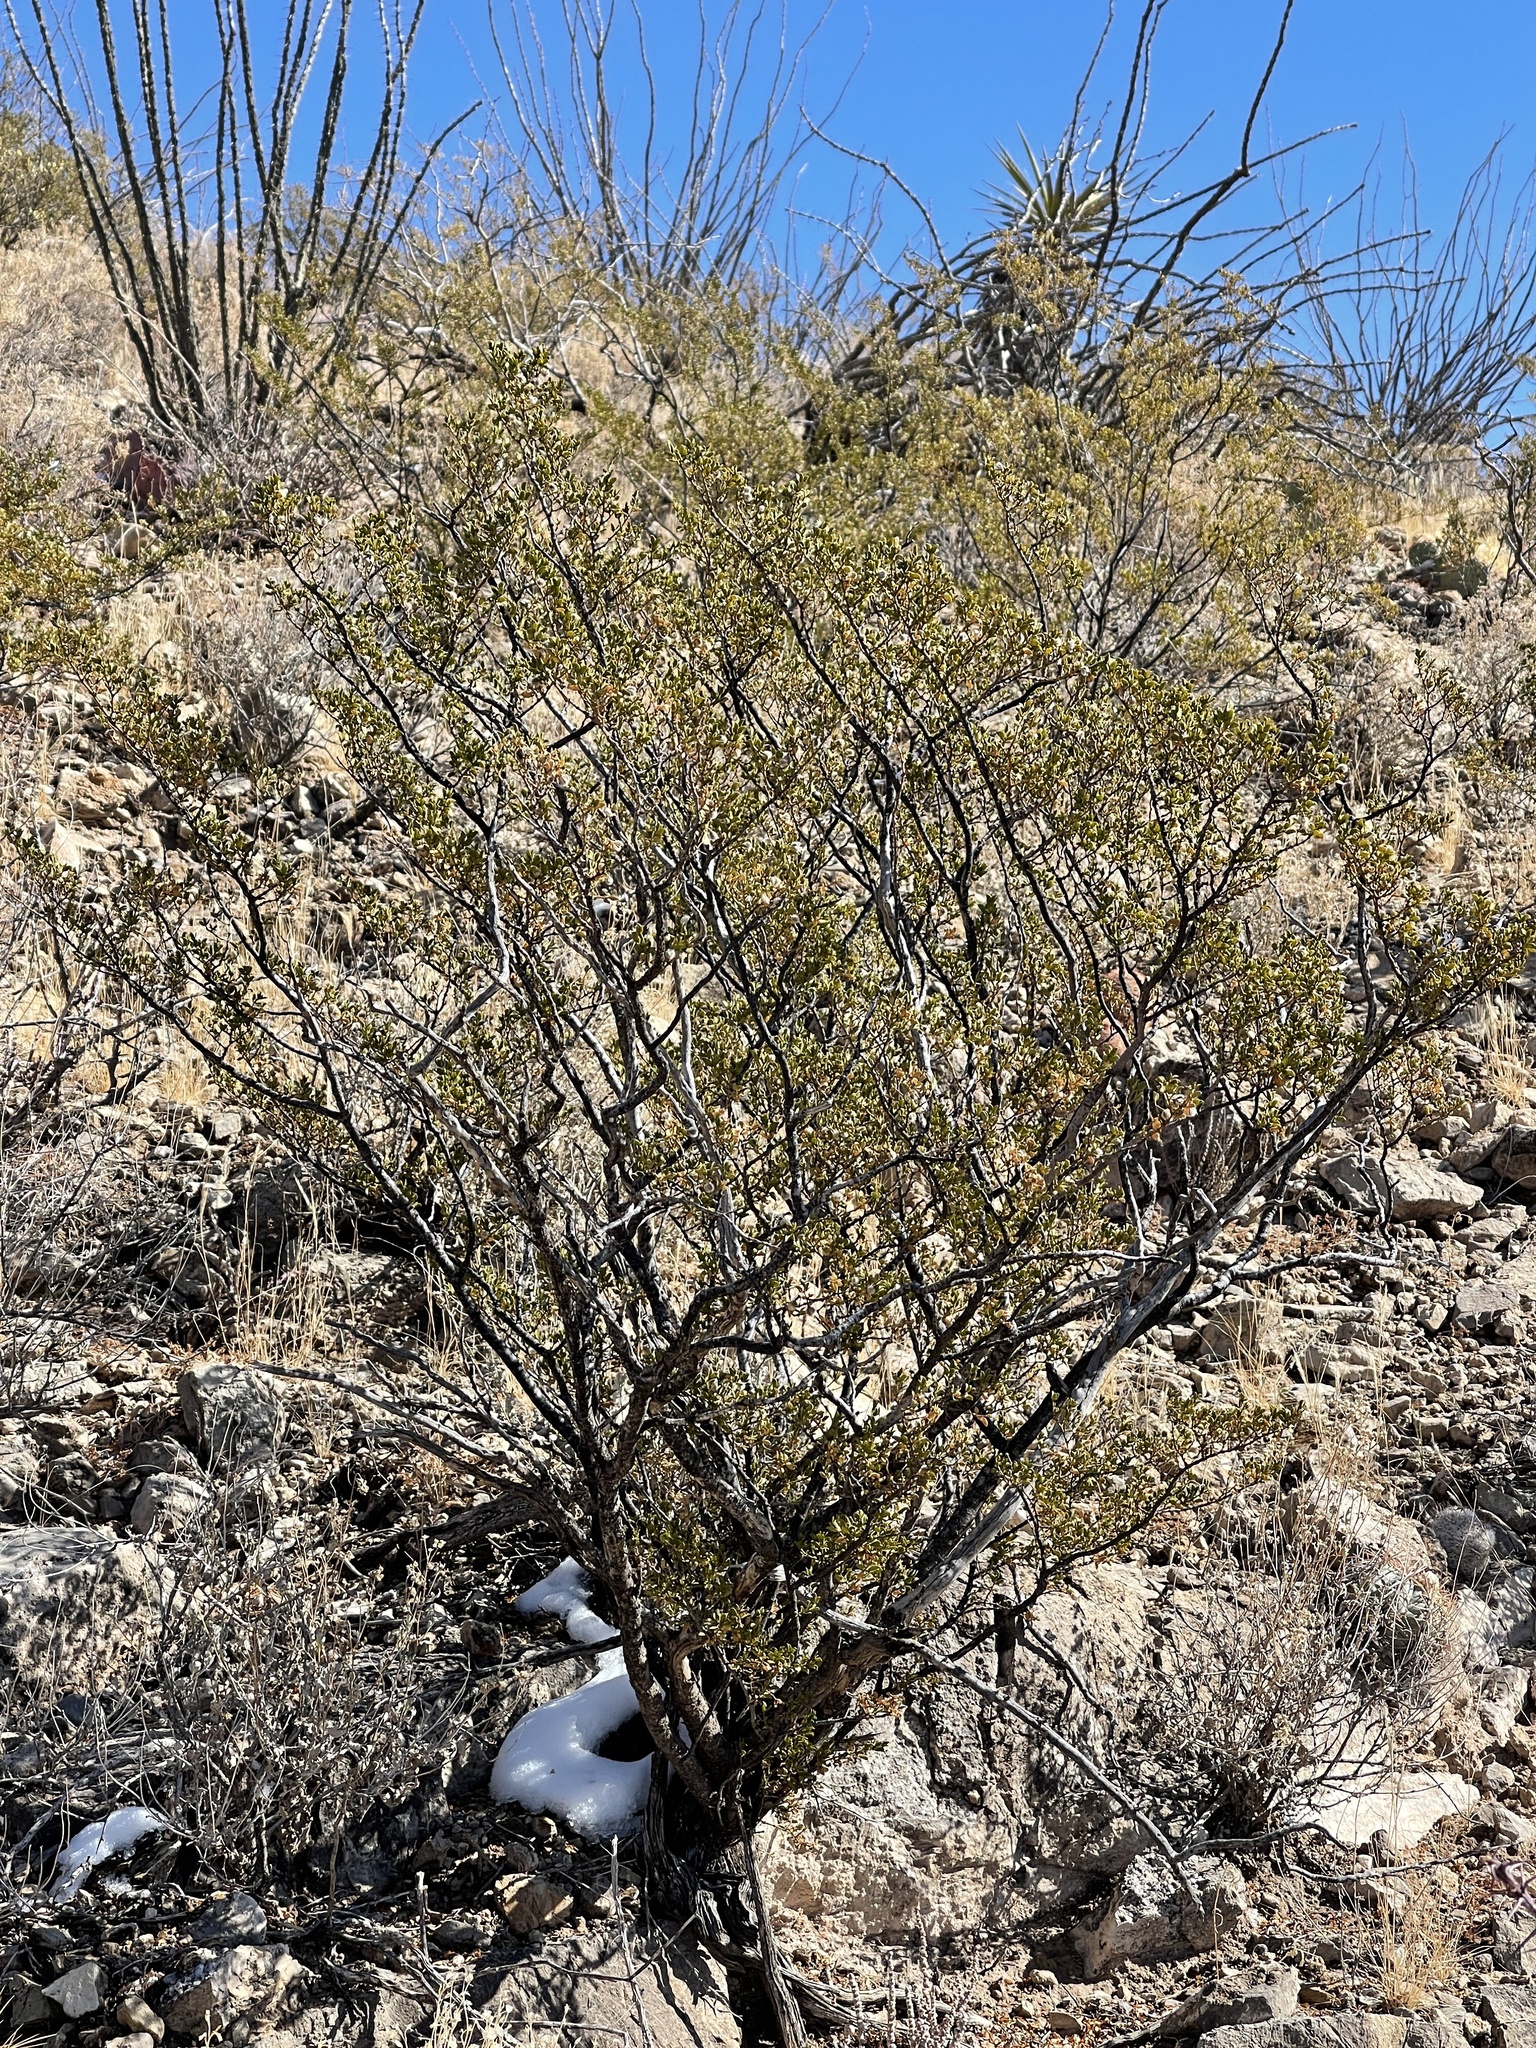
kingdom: Plantae
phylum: Tracheophyta
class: Magnoliopsida
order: Zygophyllales
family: Zygophyllaceae
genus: Larrea
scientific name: Larrea tridentata
